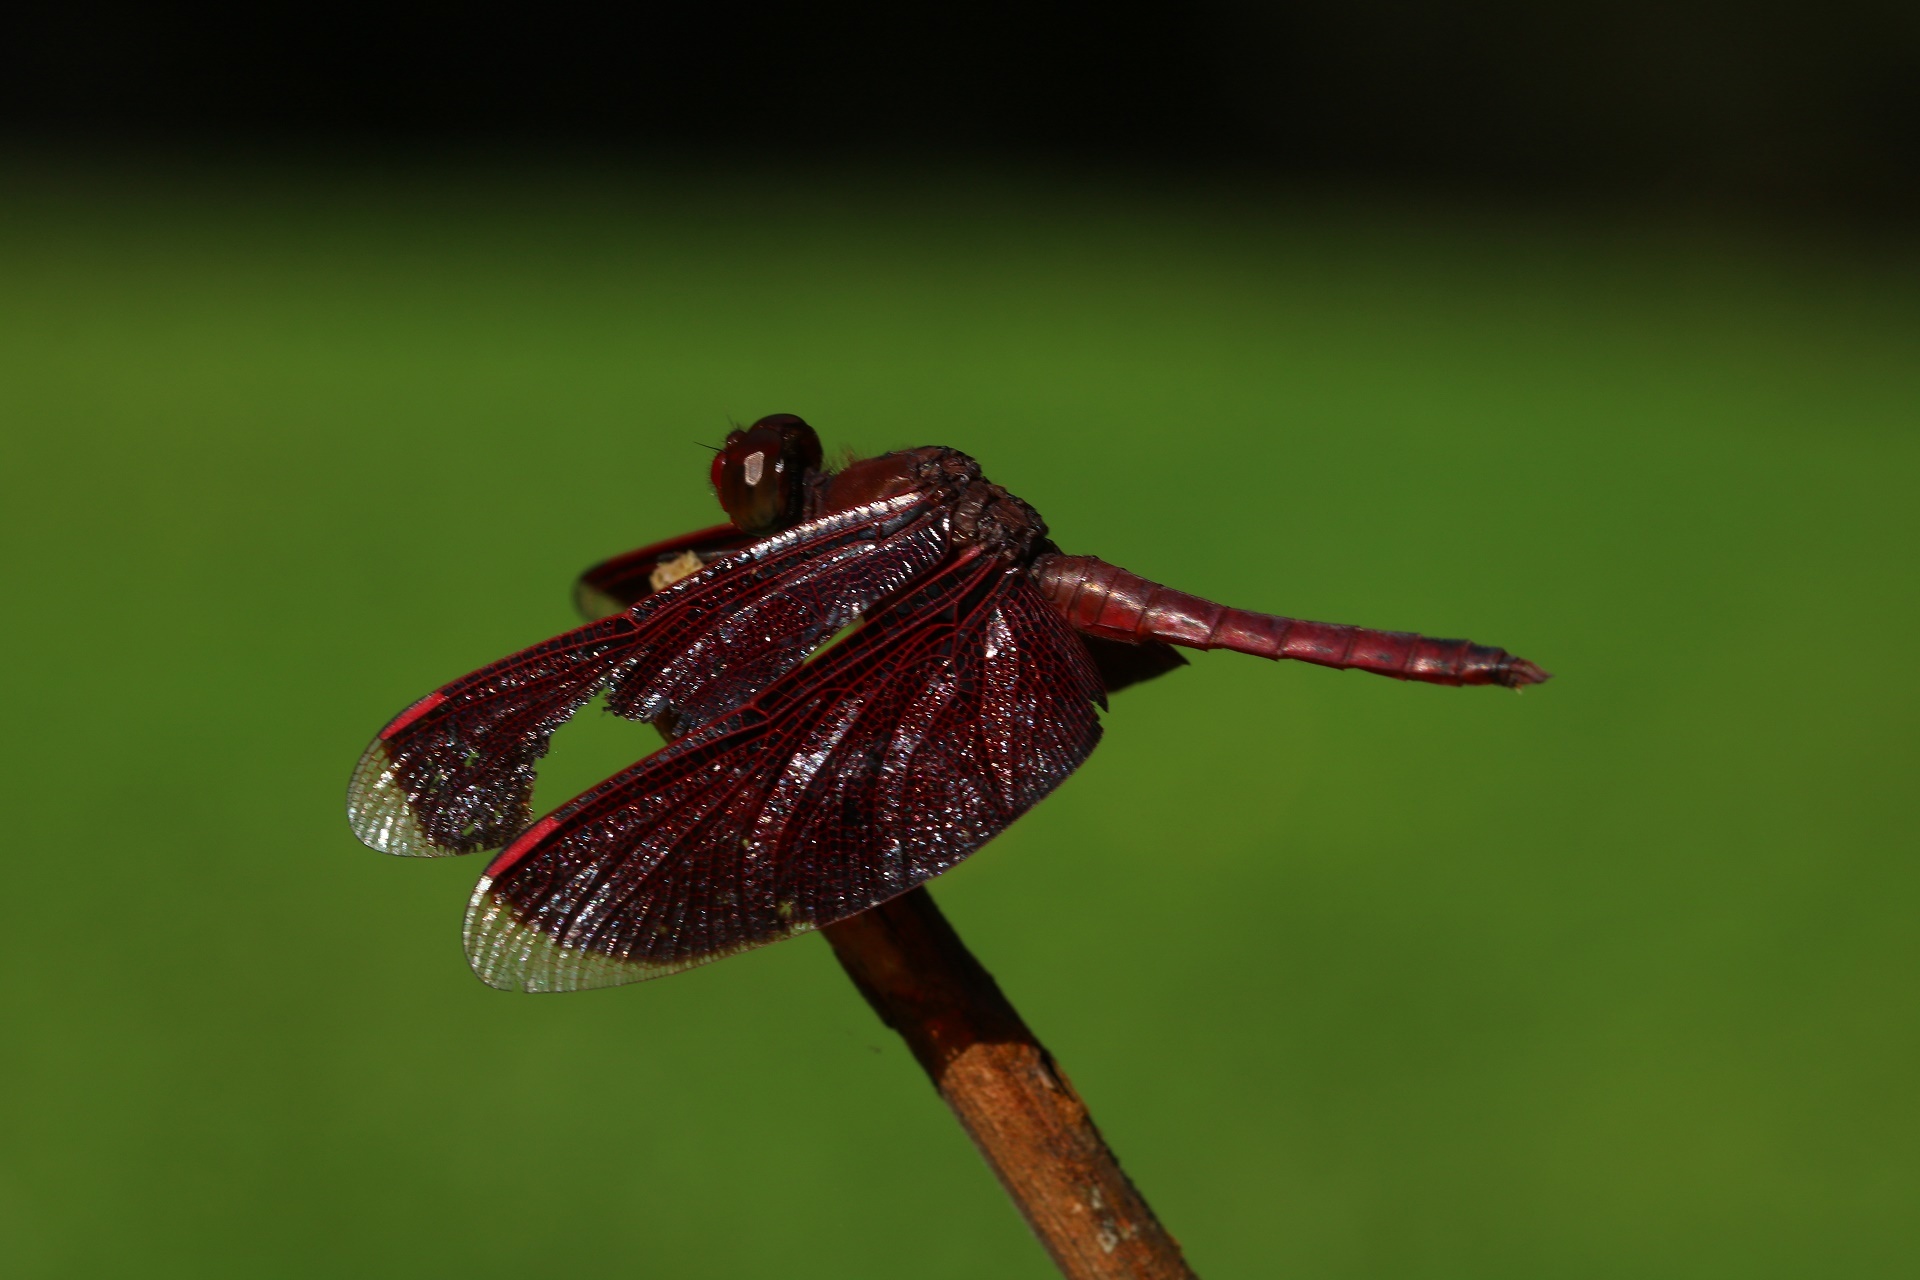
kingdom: Animalia
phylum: Arthropoda
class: Insecta
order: Odonata
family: Libellulidae
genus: Neurothemis
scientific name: Neurothemis ramburii
